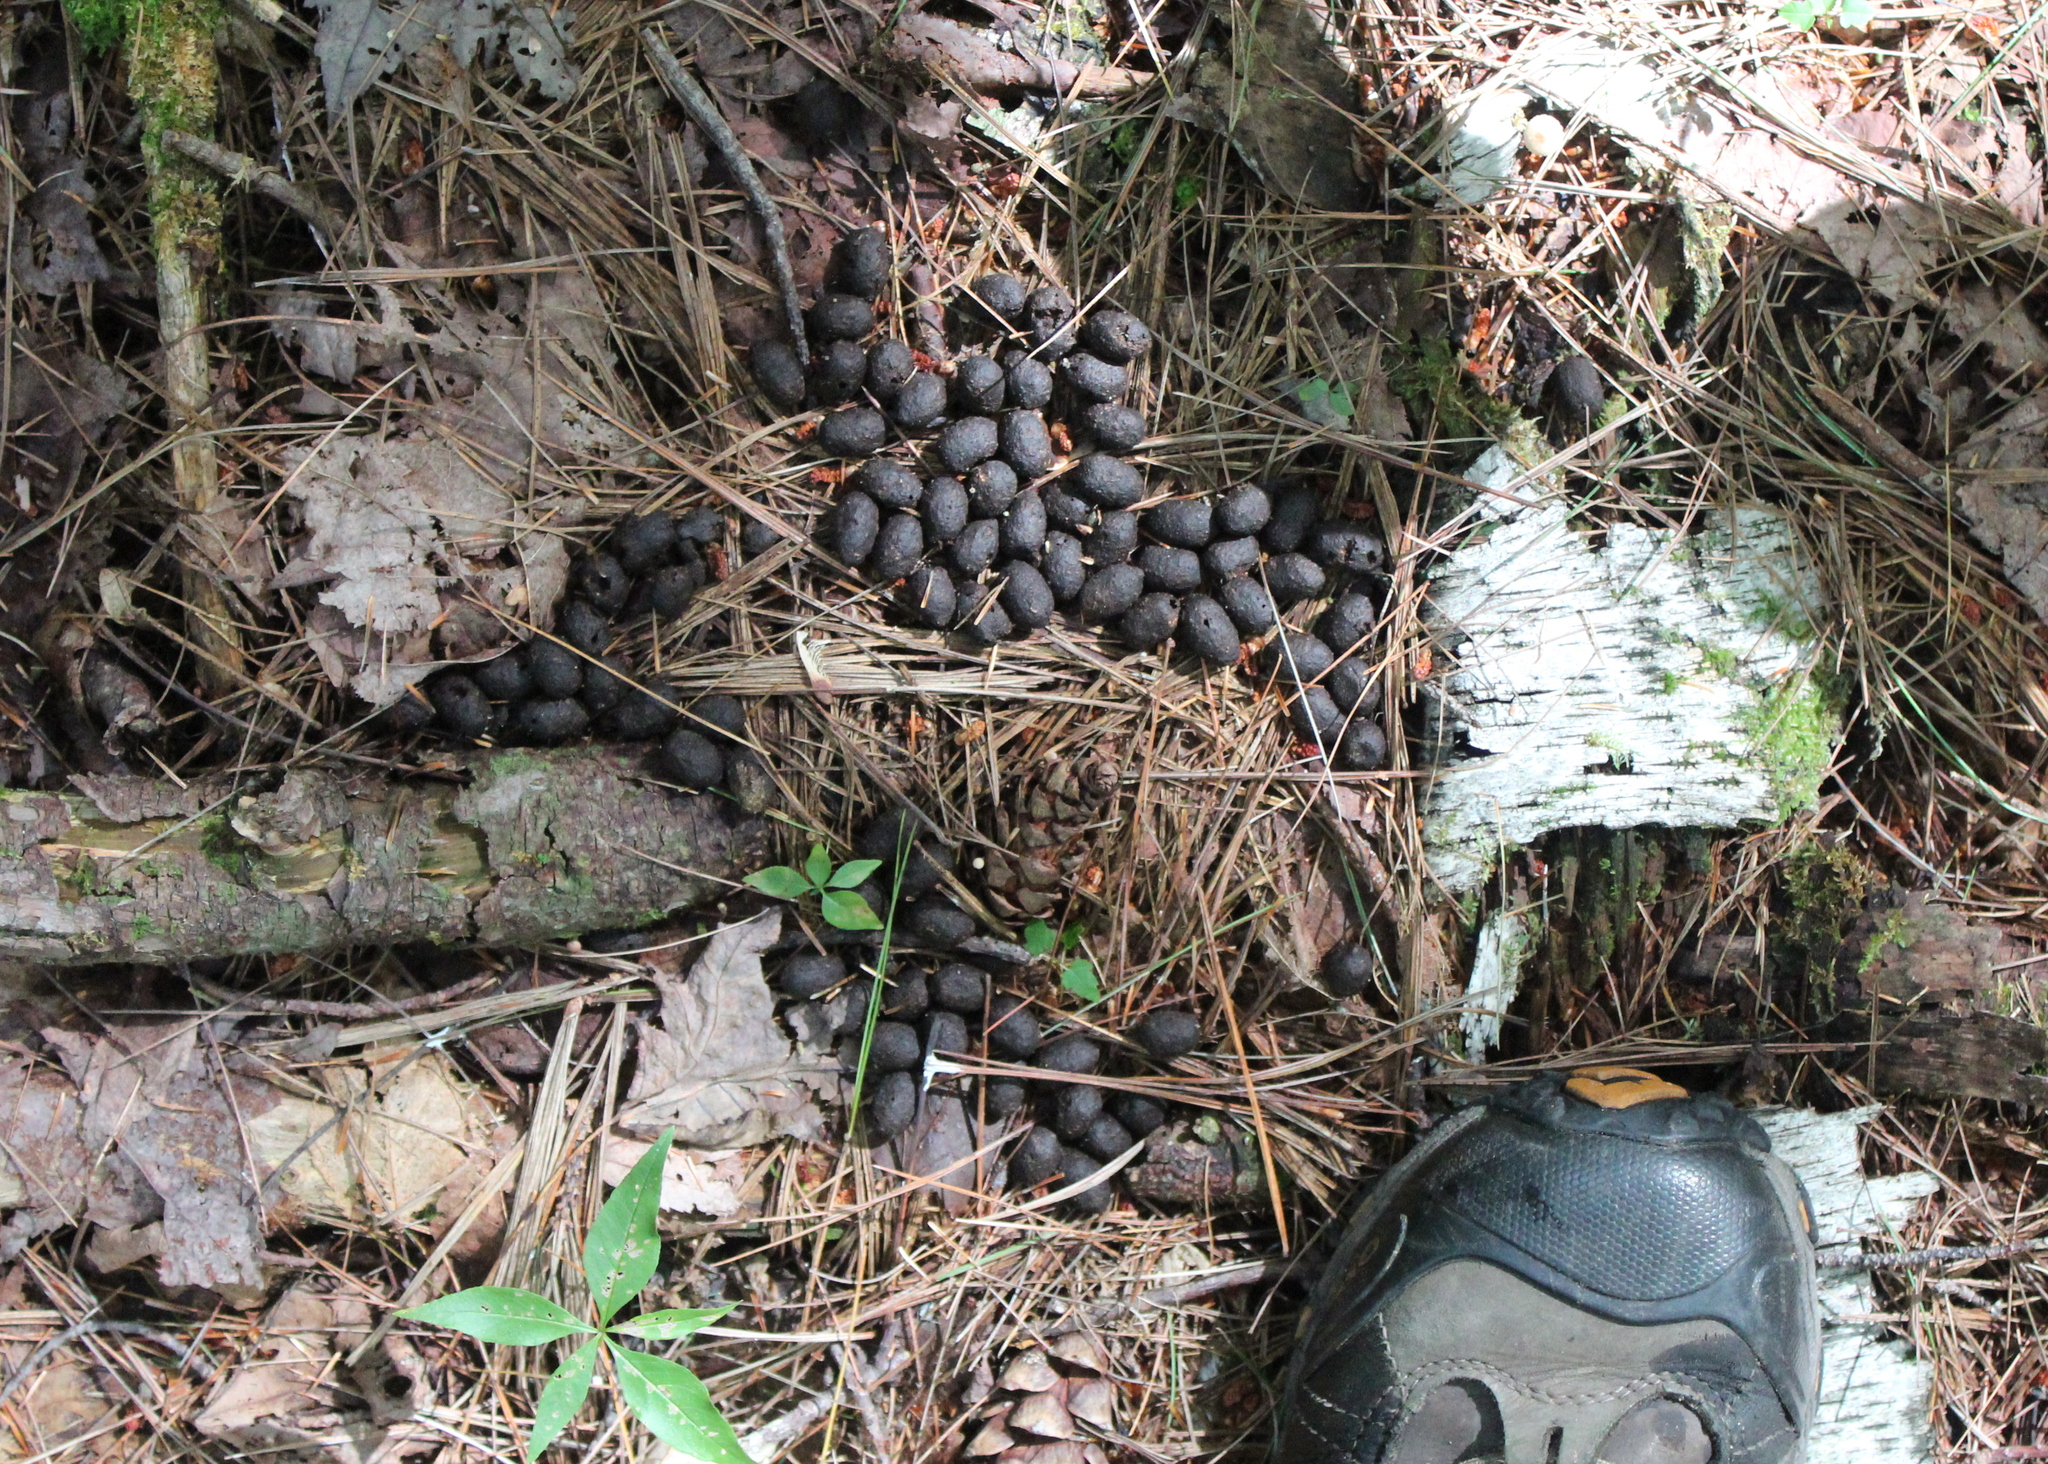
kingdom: Animalia
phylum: Chordata
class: Mammalia
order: Artiodactyla
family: Cervidae
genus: Odocoileus
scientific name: Odocoileus virginianus
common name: White-tailed deer
